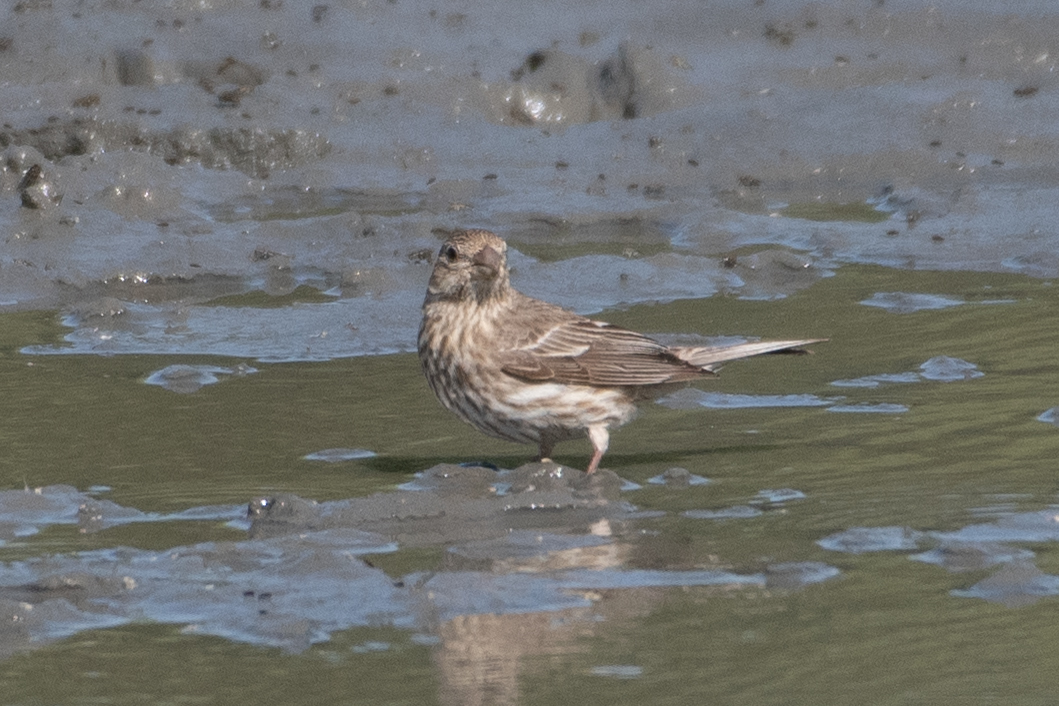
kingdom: Animalia
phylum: Chordata
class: Aves
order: Passeriformes
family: Fringillidae
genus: Haemorhous
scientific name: Haemorhous mexicanus
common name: House finch
